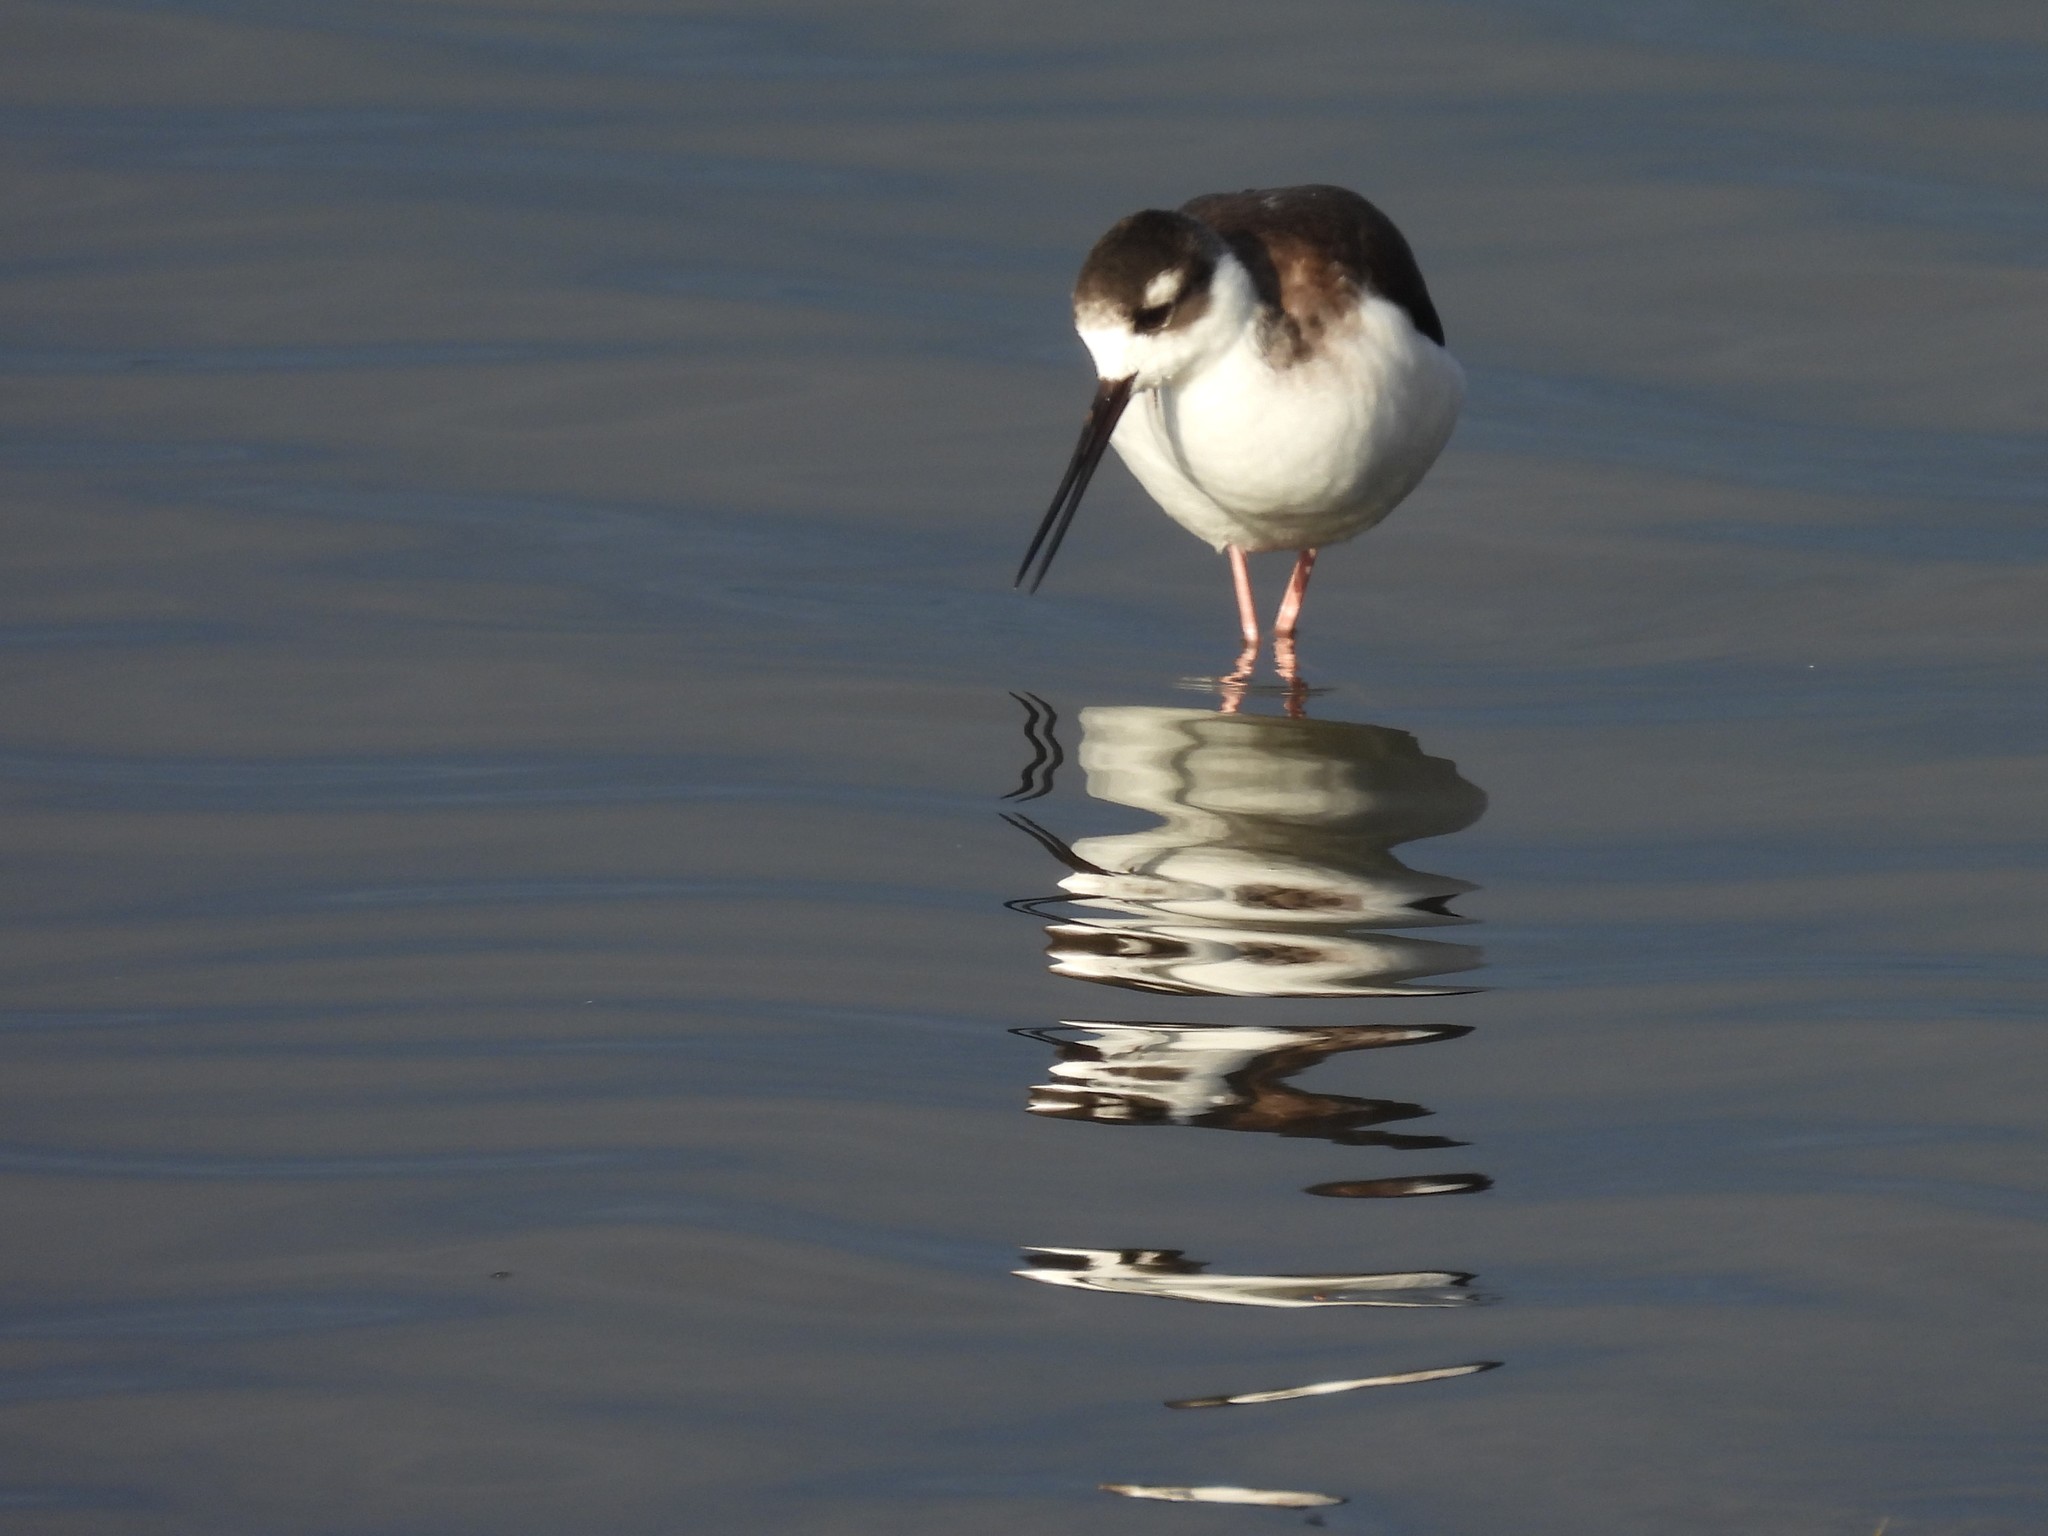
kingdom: Animalia
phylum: Chordata
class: Aves
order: Charadriiformes
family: Recurvirostridae
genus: Himantopus
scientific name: Himantopus mexicanus
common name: Black-necked stilt
